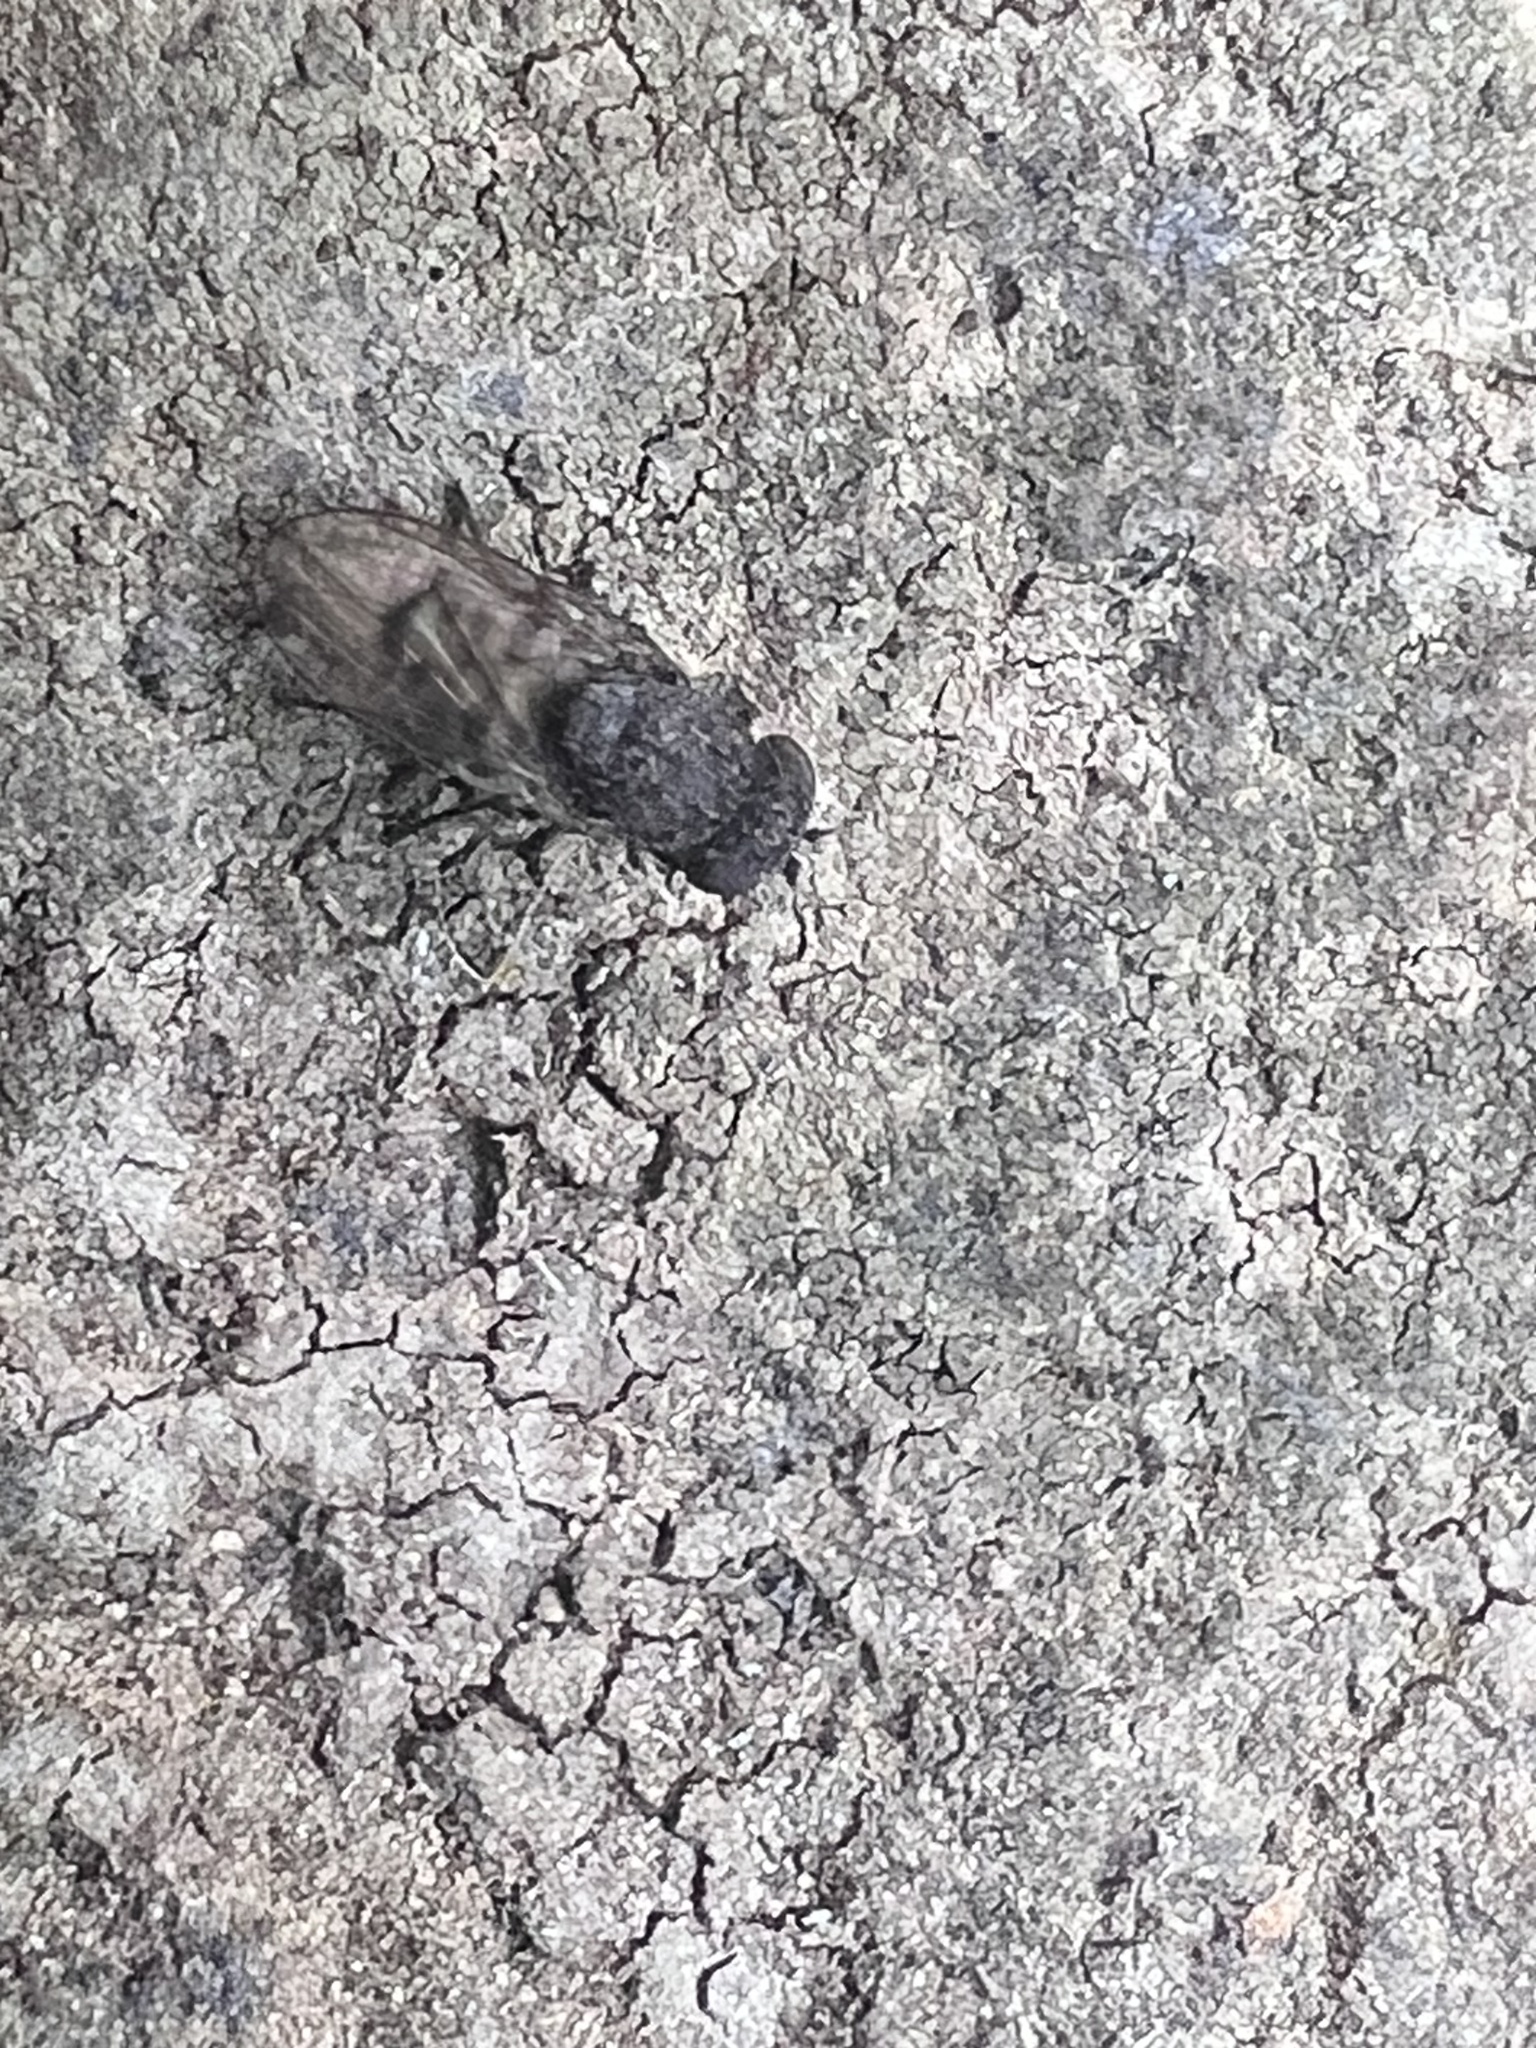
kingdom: Animalia
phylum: Arthropoda
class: Insecta
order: Diptera
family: Ephydridae
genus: Paralimna
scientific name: Paralimna punctipennis
